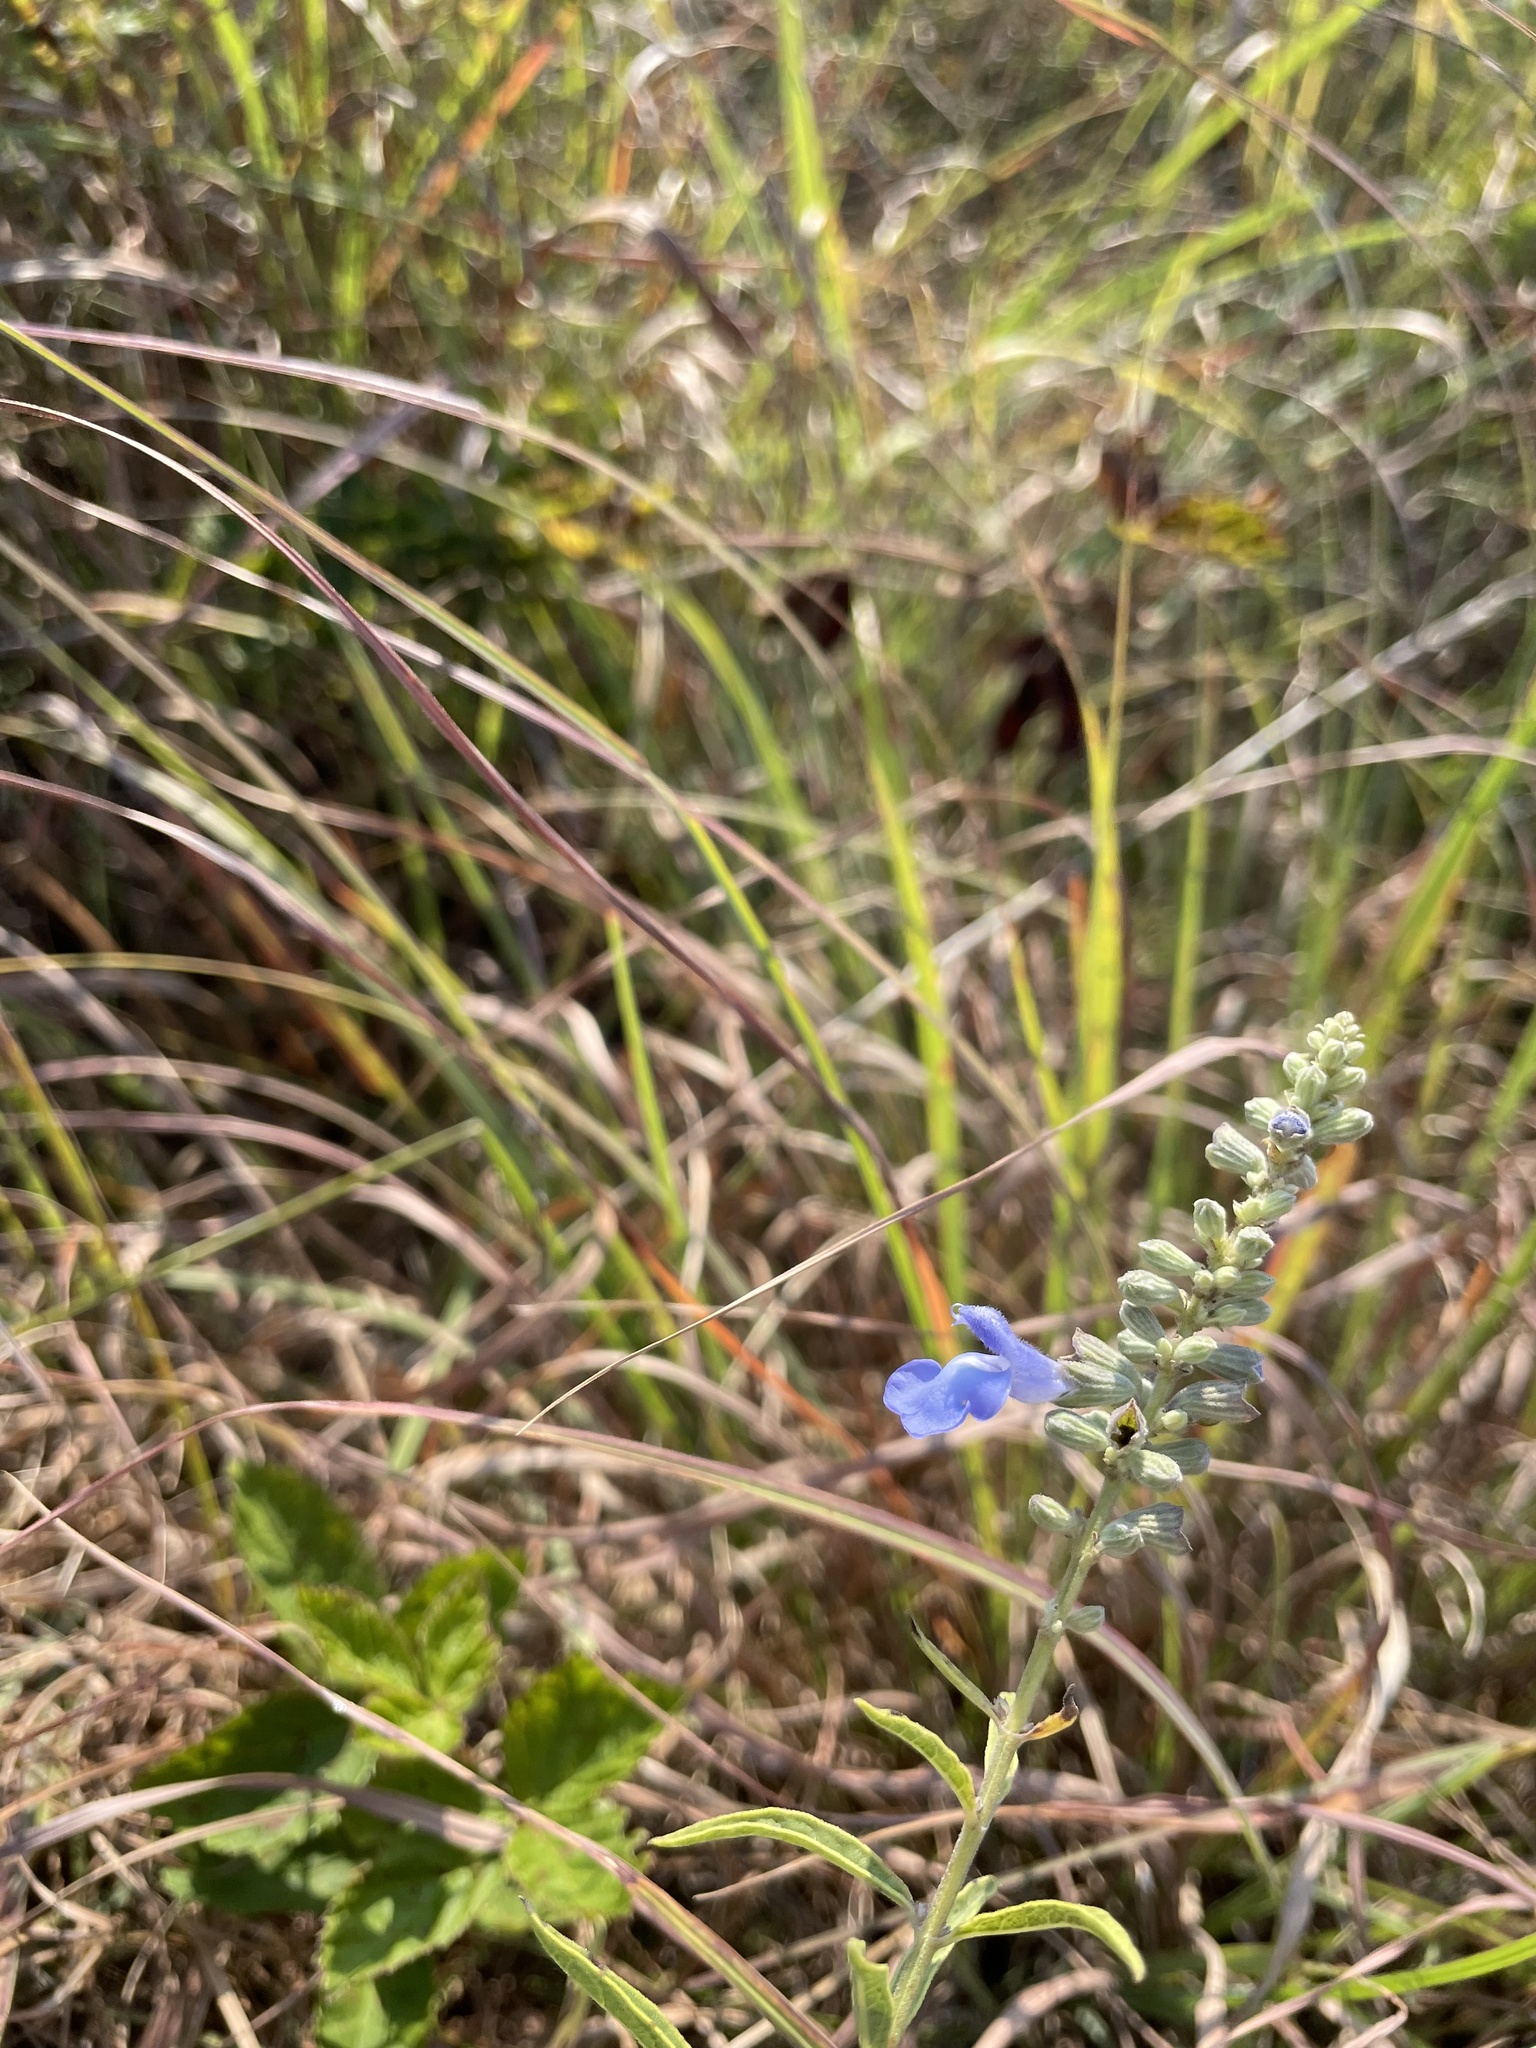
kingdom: Plantae
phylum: Tracheophyta
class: Magnoliopsida
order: Lamiales
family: Lamiaceae
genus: Salvia
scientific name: Salvia azurea
